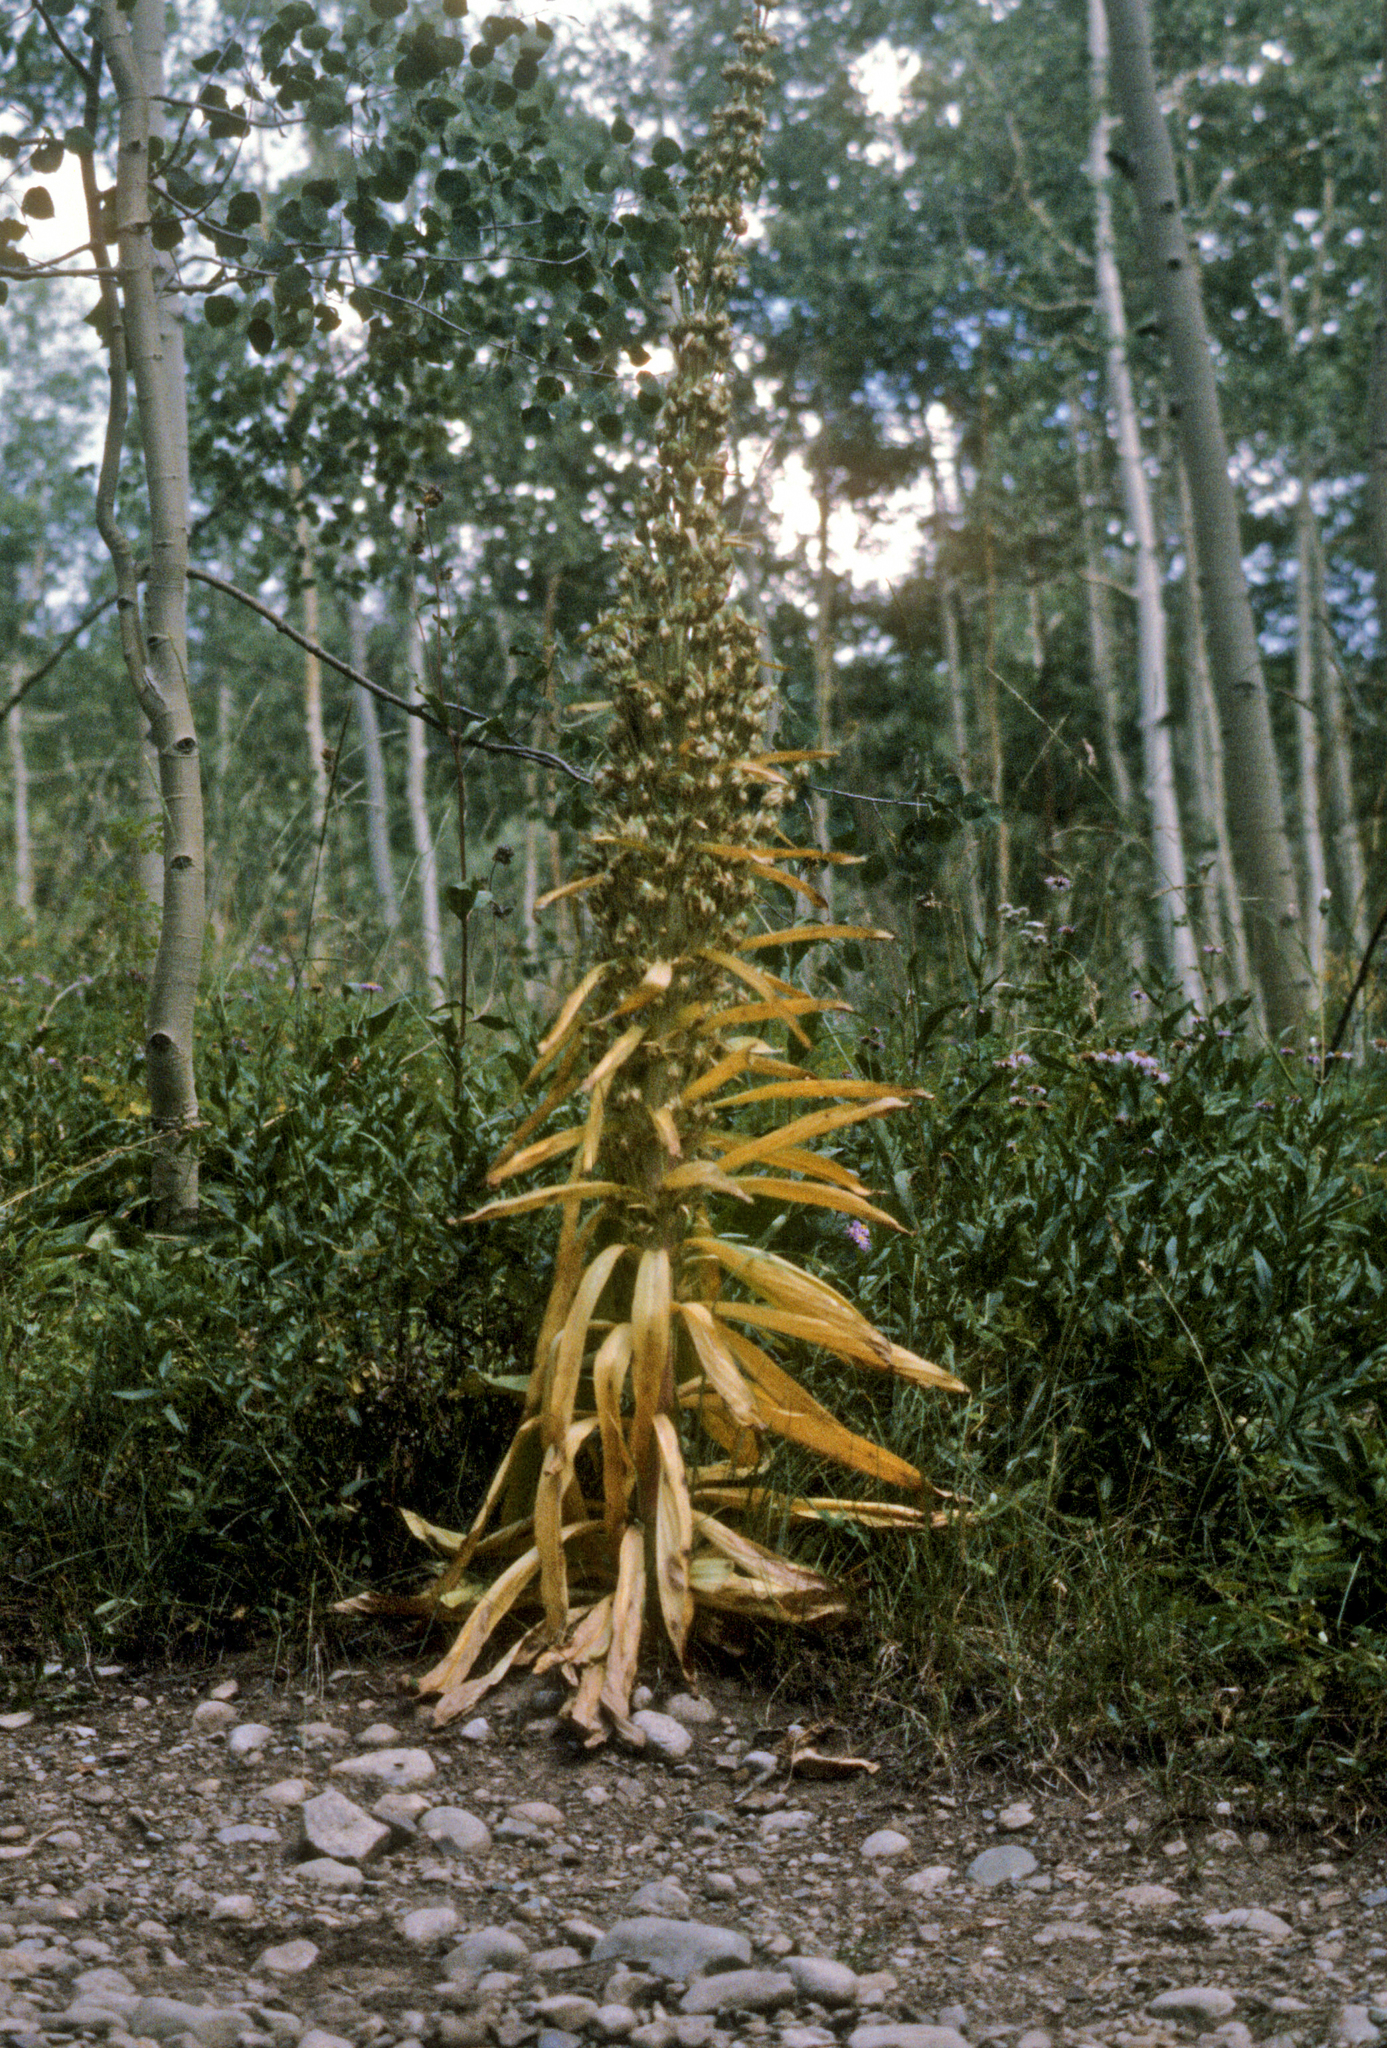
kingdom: Plantae
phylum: Tracheophyta
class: Magnoliopsida
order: Gentianales
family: Gentianaceae
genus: Frasera
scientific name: Frasera speciosa
